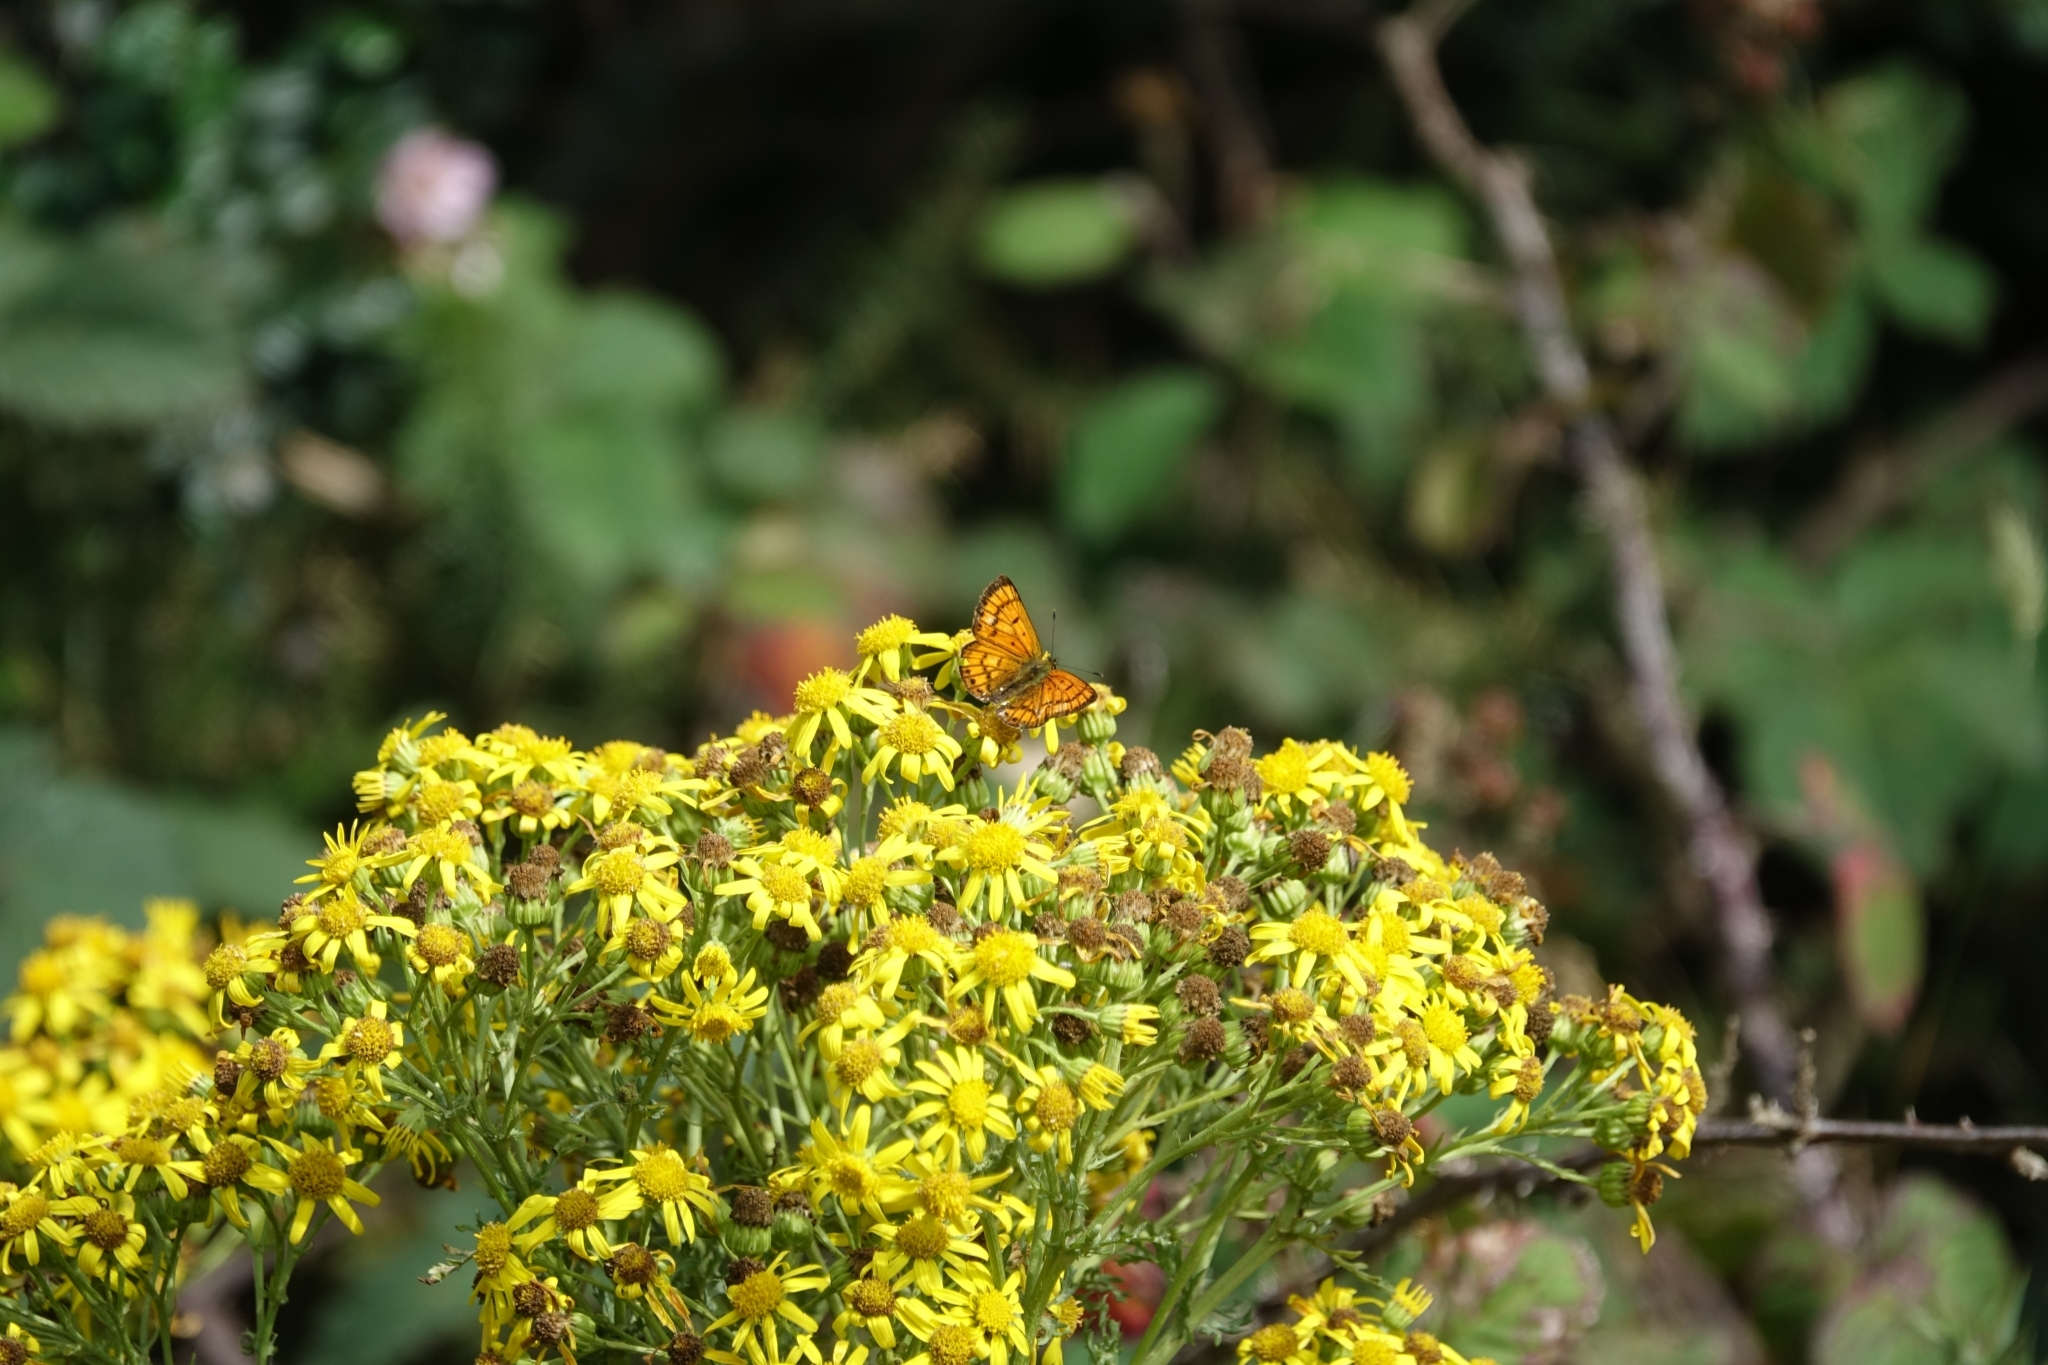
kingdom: Animalia
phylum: Arthropoda
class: Insecta
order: Lepidoptera
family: Lycaenidae
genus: Lycaena
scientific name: Lycaena salustius
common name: North island coastal copper
